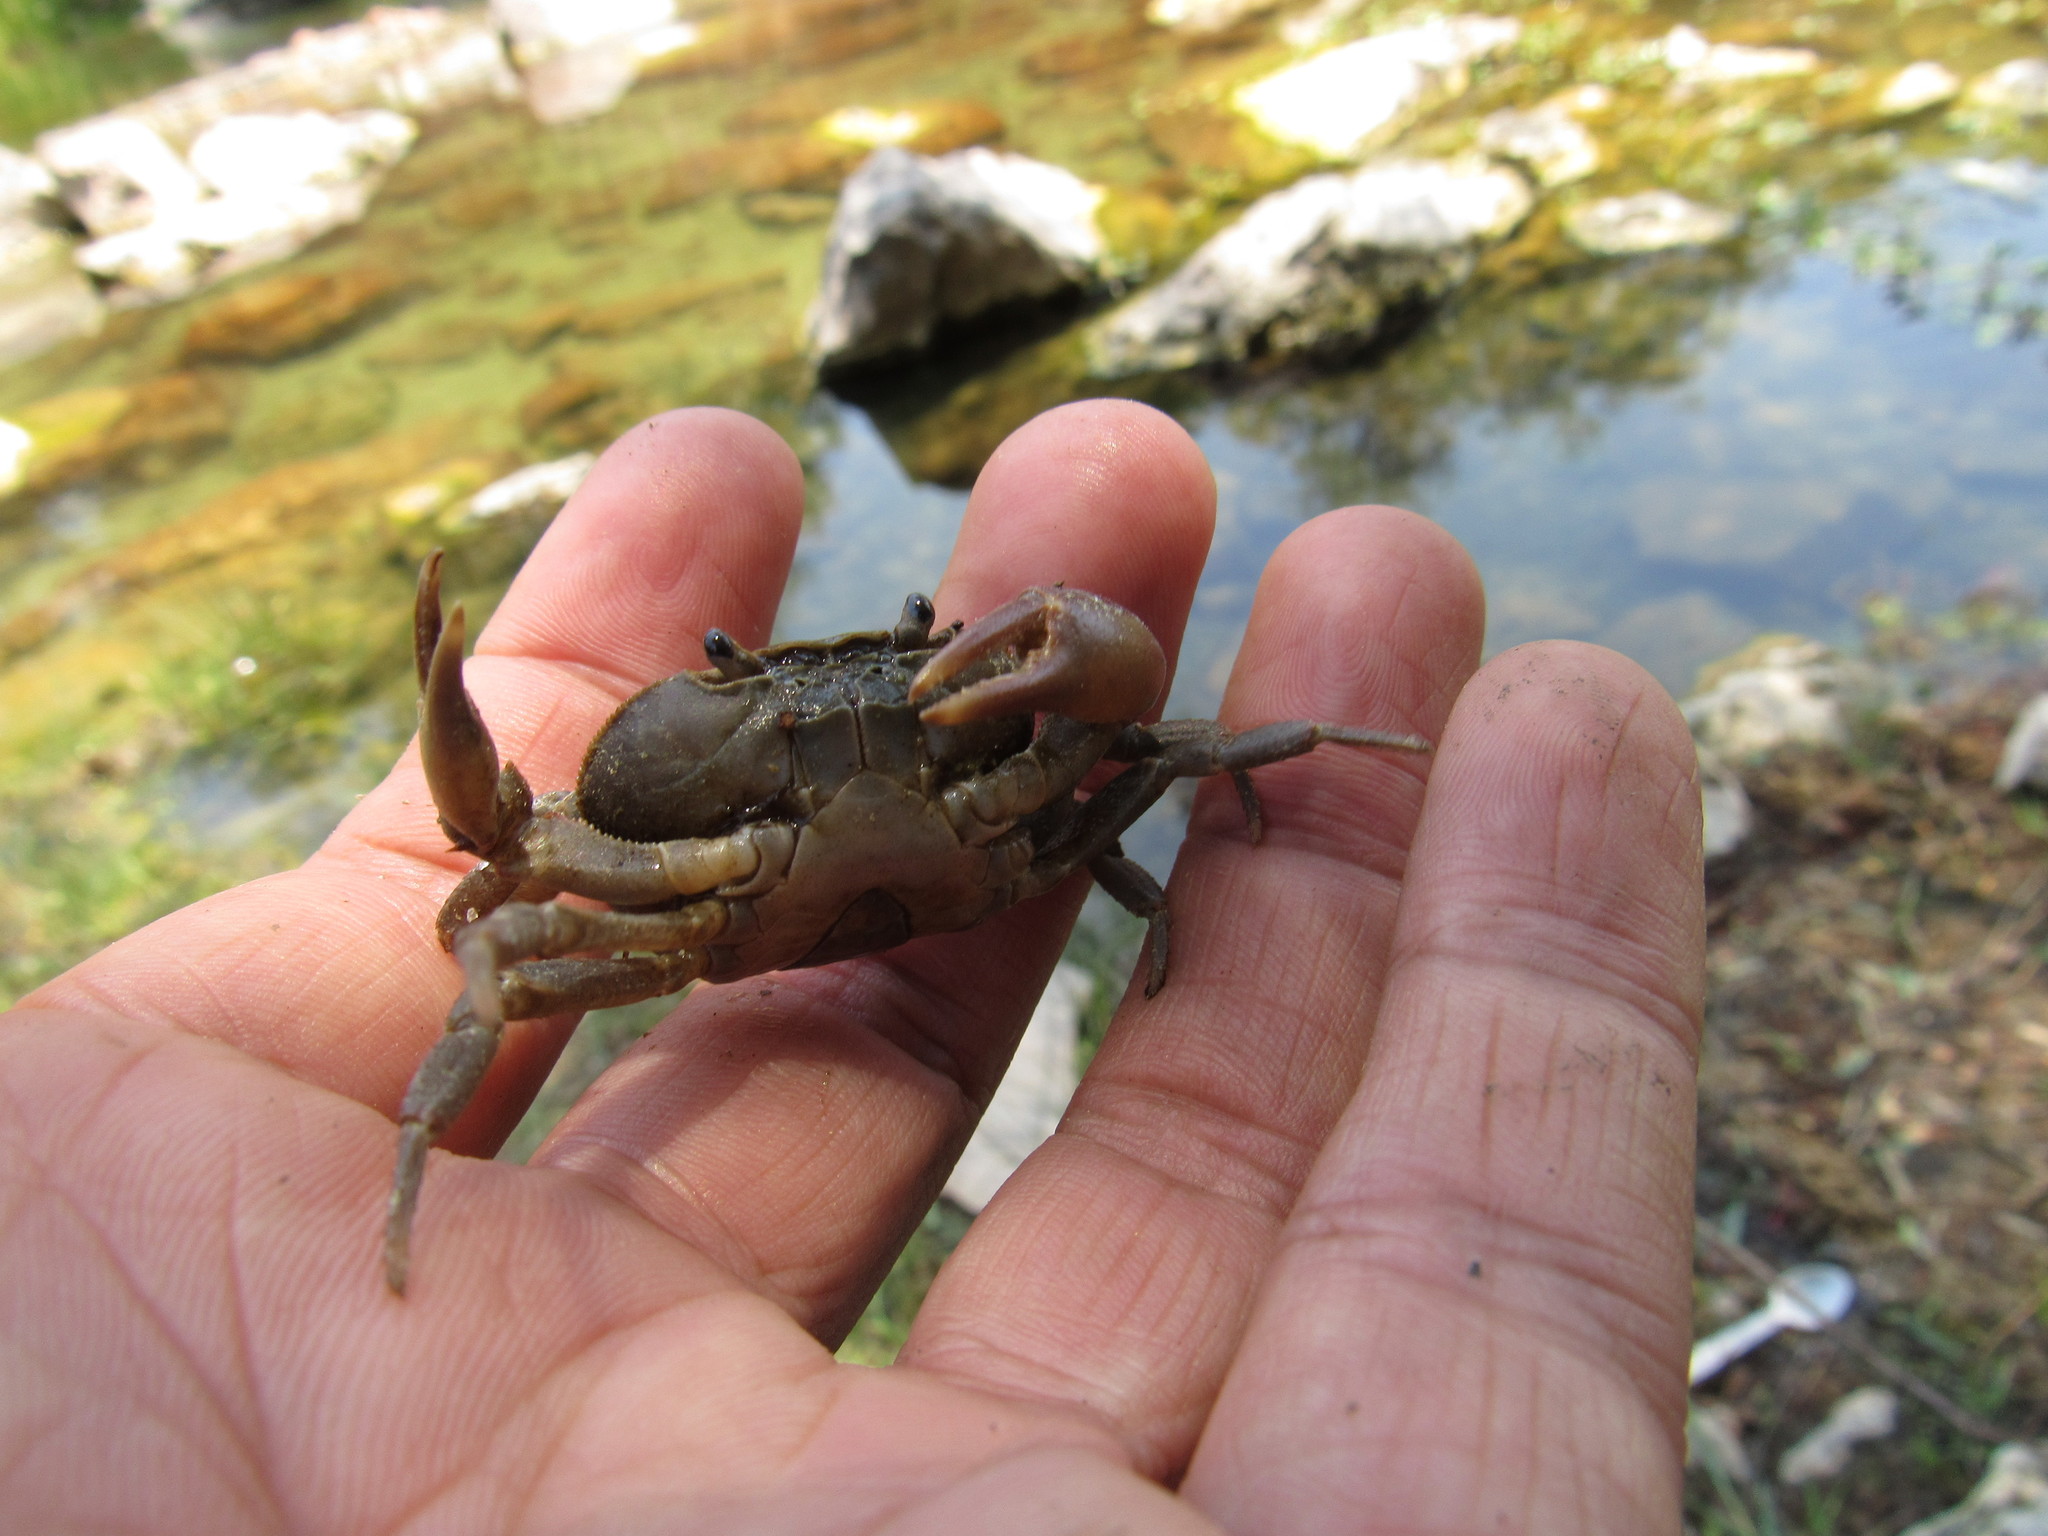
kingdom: Animalia
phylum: Arthropoda
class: Malacostraca
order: Decapoda
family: Pseudothelphusidae
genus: Pseudothelphusa
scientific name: Pseudothelphusa jouyi
